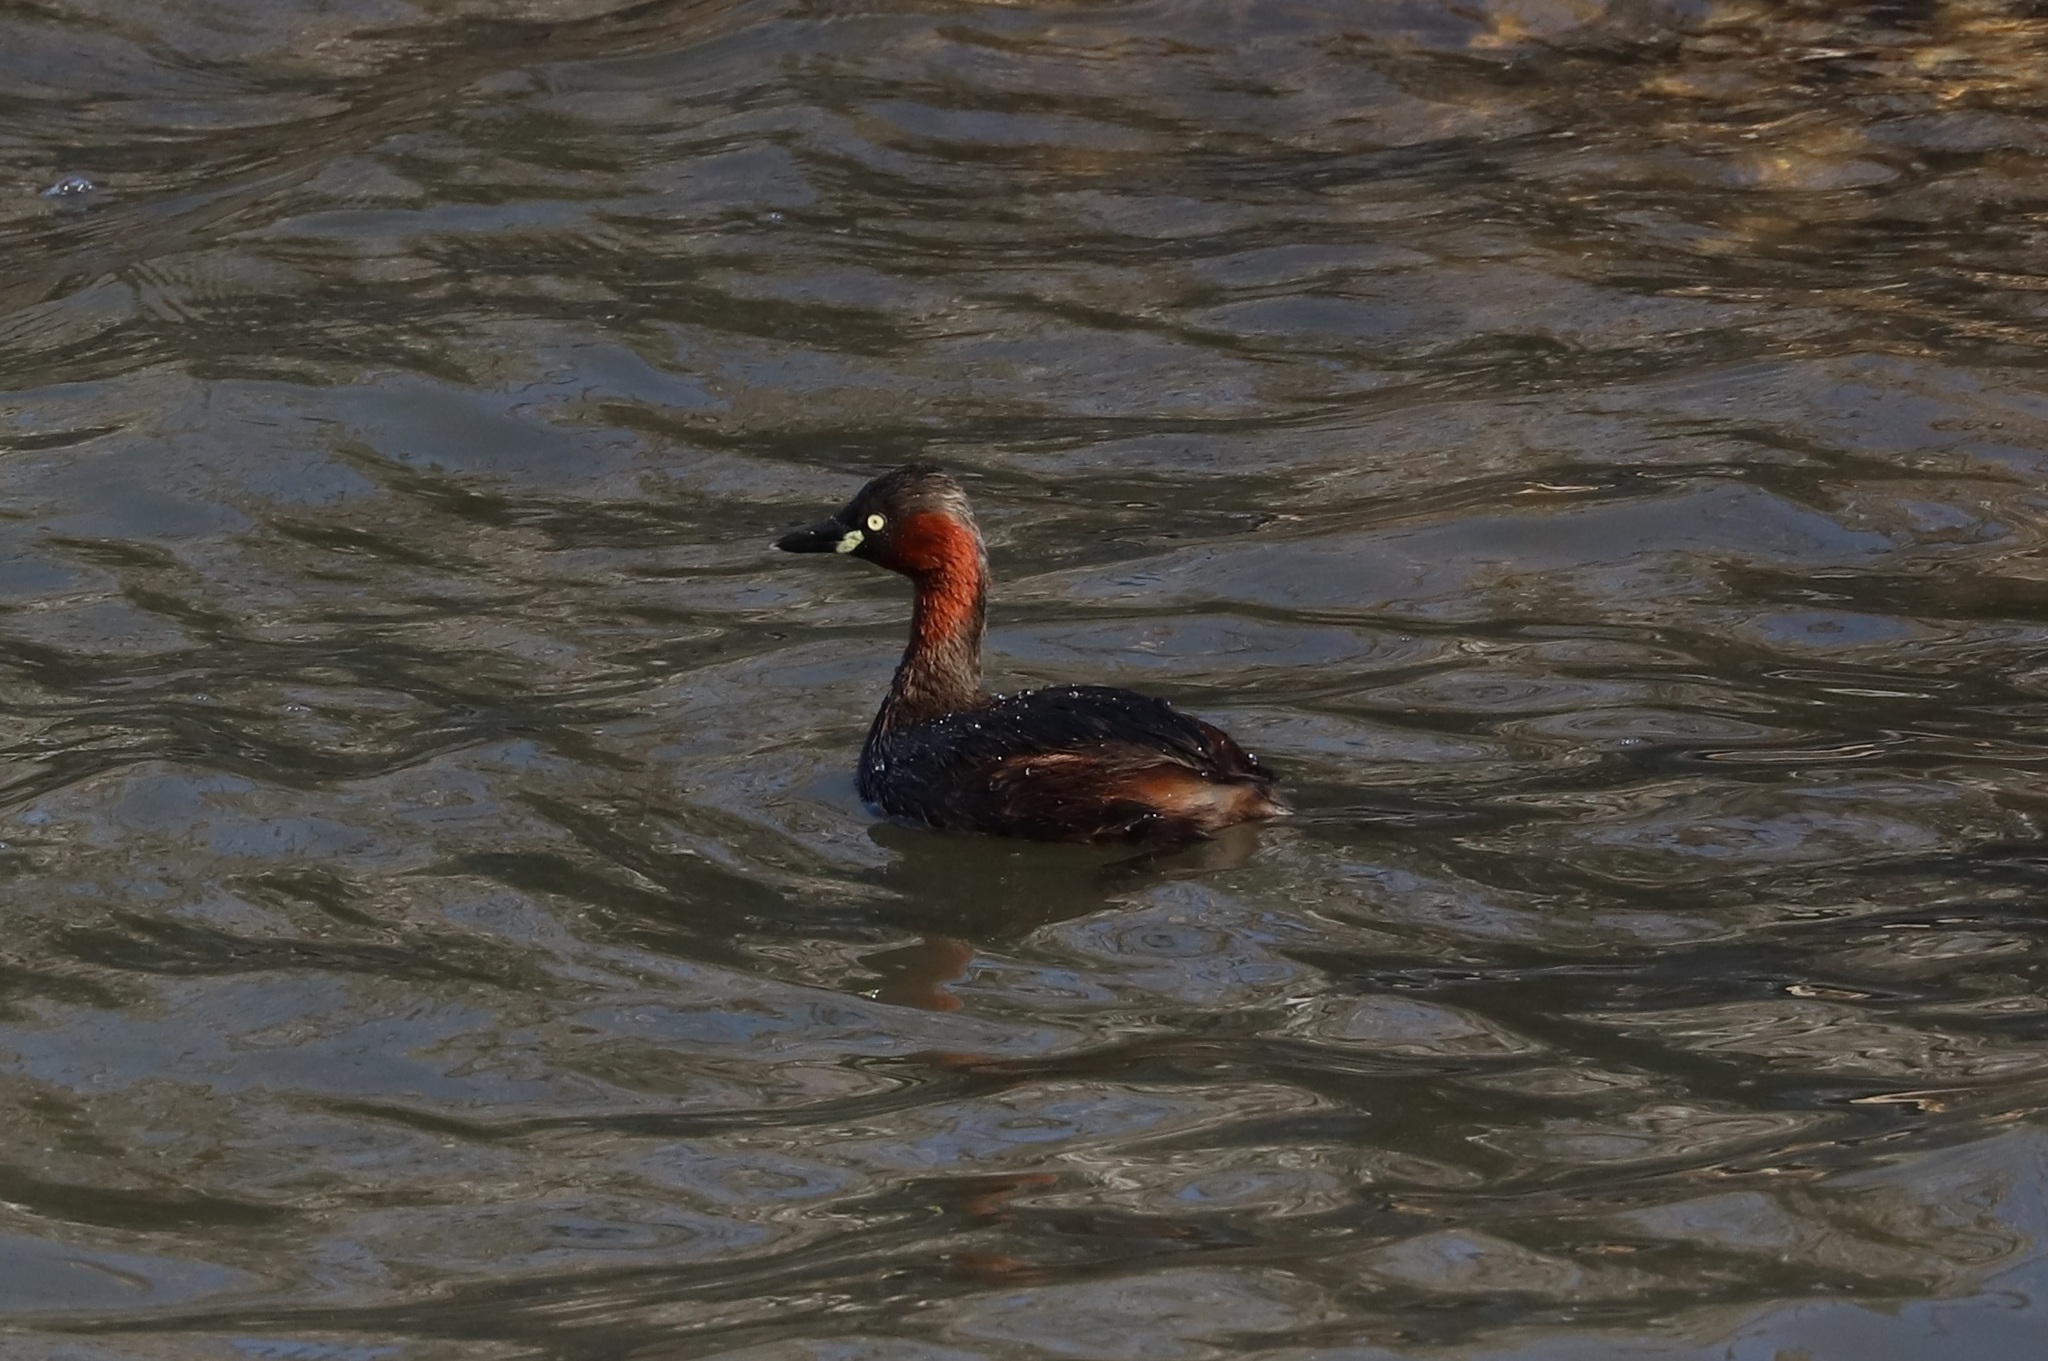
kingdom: Animalia
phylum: Chordata
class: Aves
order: Podicipediformes
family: Podicipedidae
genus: Tachybaptus
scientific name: Tachybaptus ruficollis
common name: Little grebe
